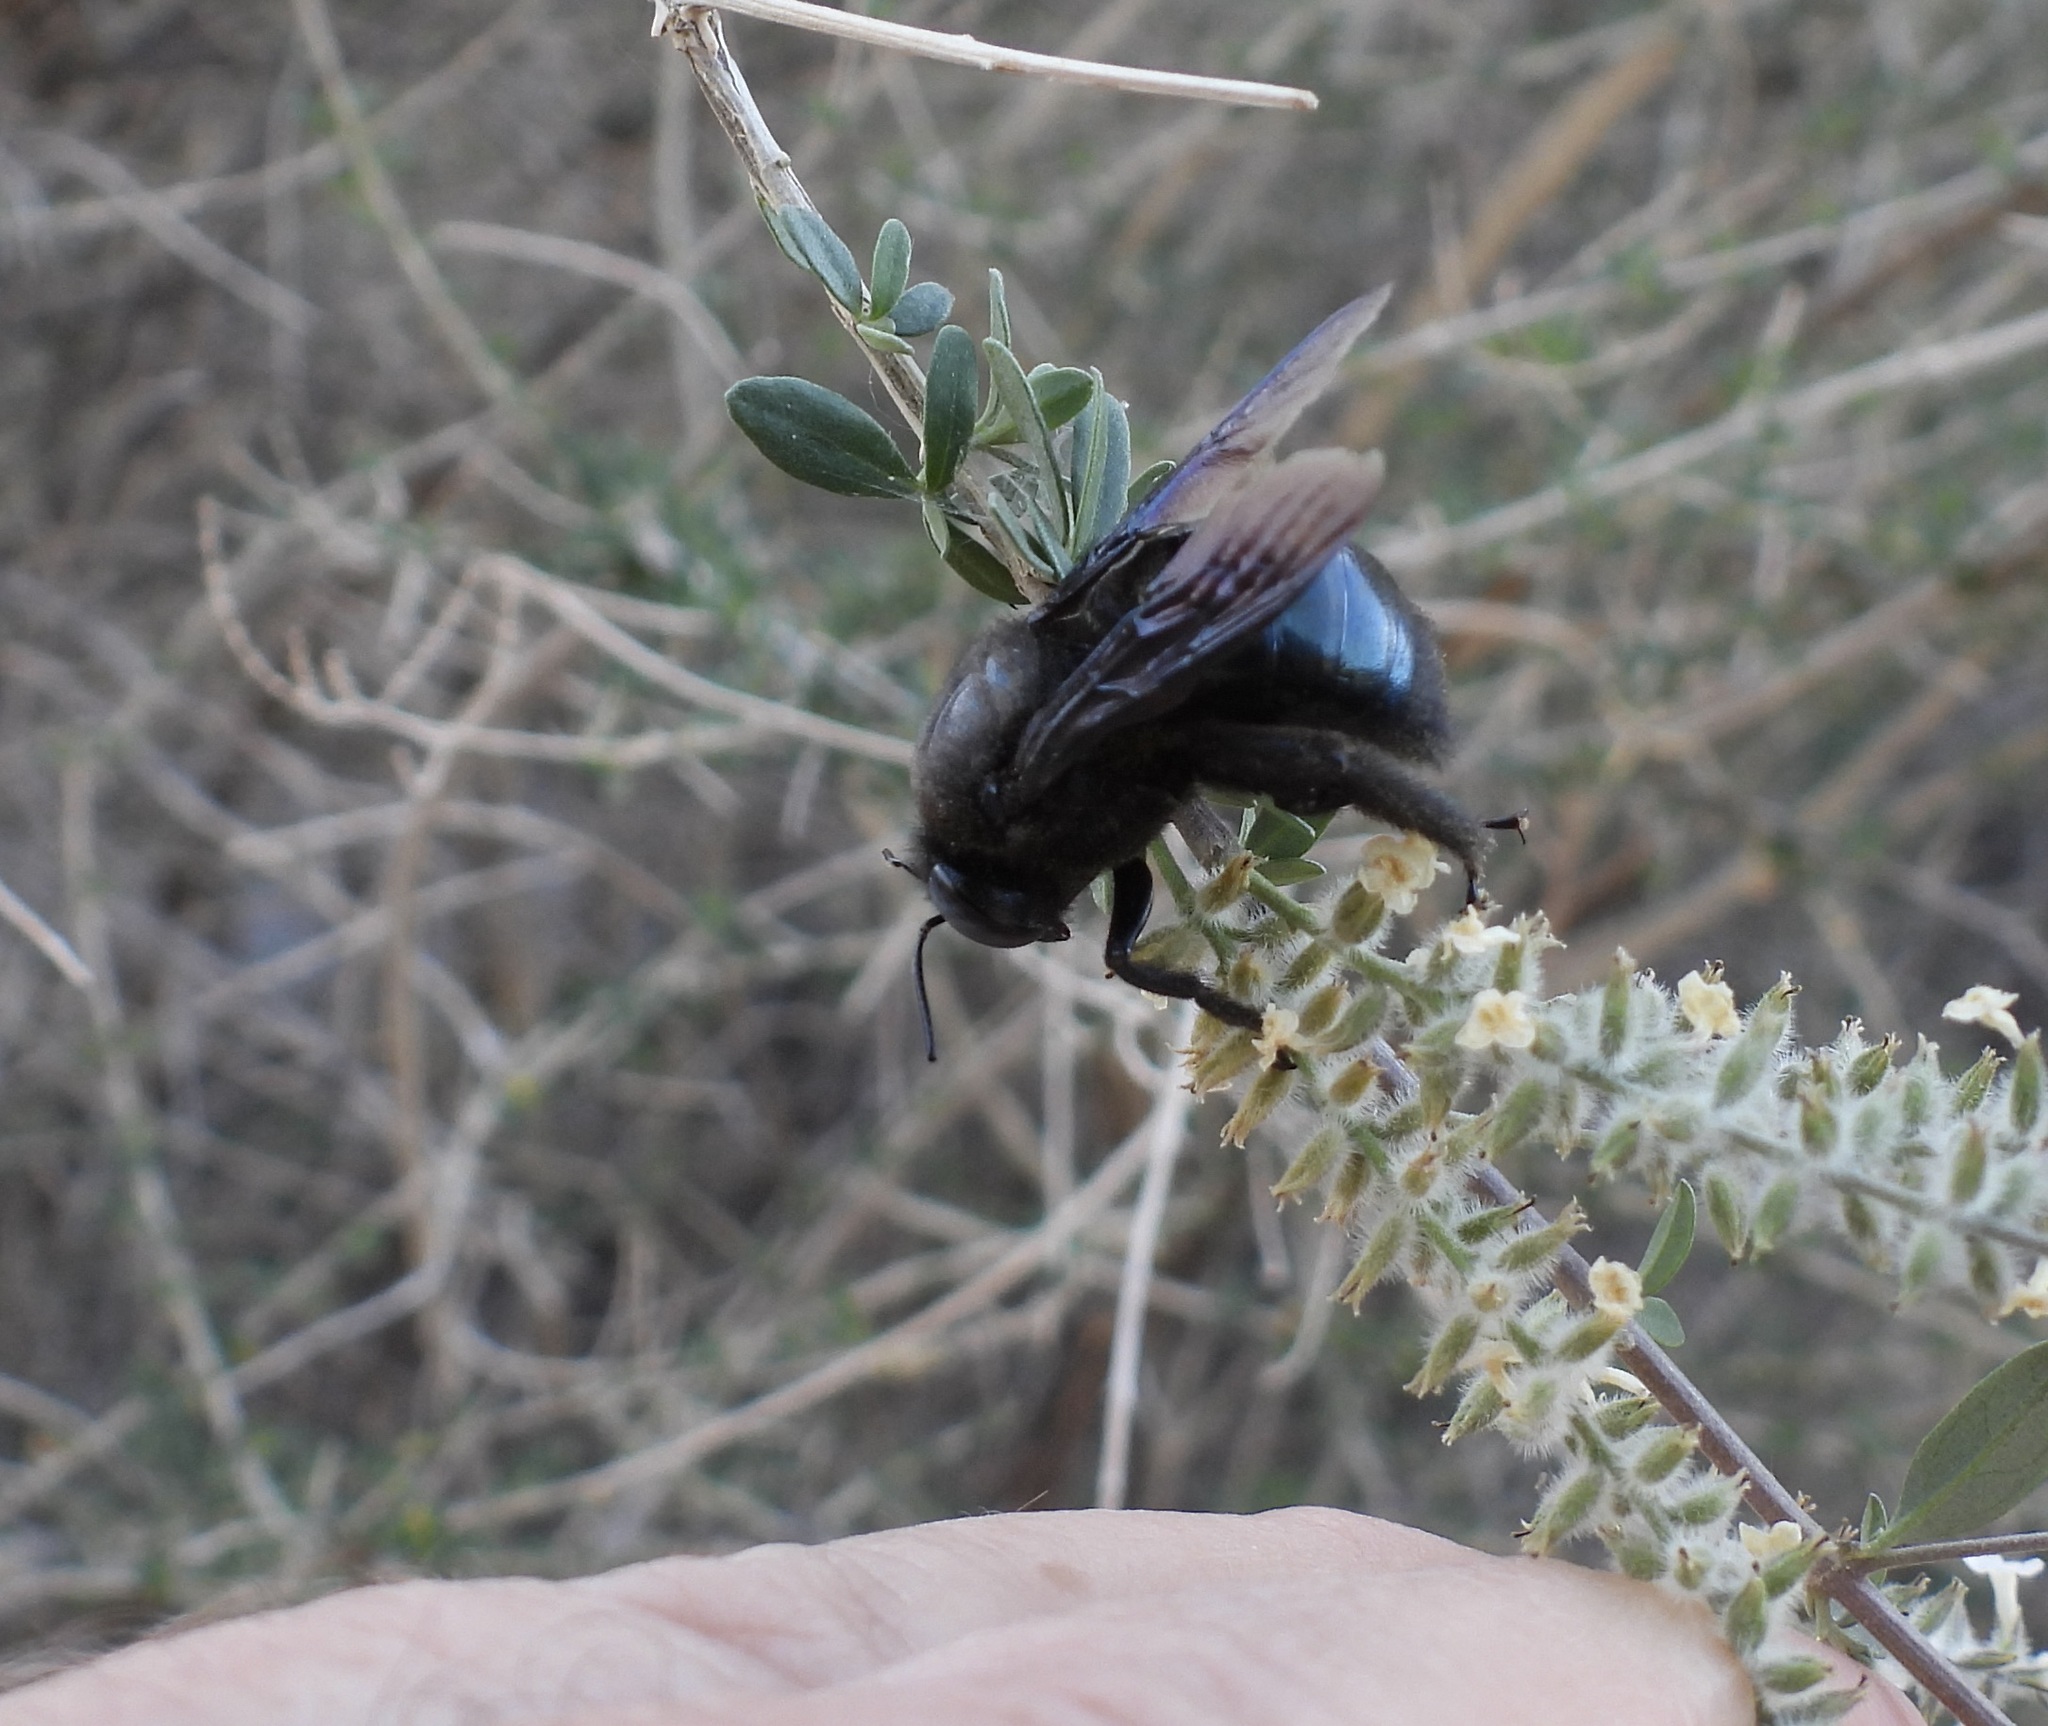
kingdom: Animalia
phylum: Arthropoda
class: Insecta
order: Hymenoptera
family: Apidae
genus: Xylocopa
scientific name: Xylocopa californica
